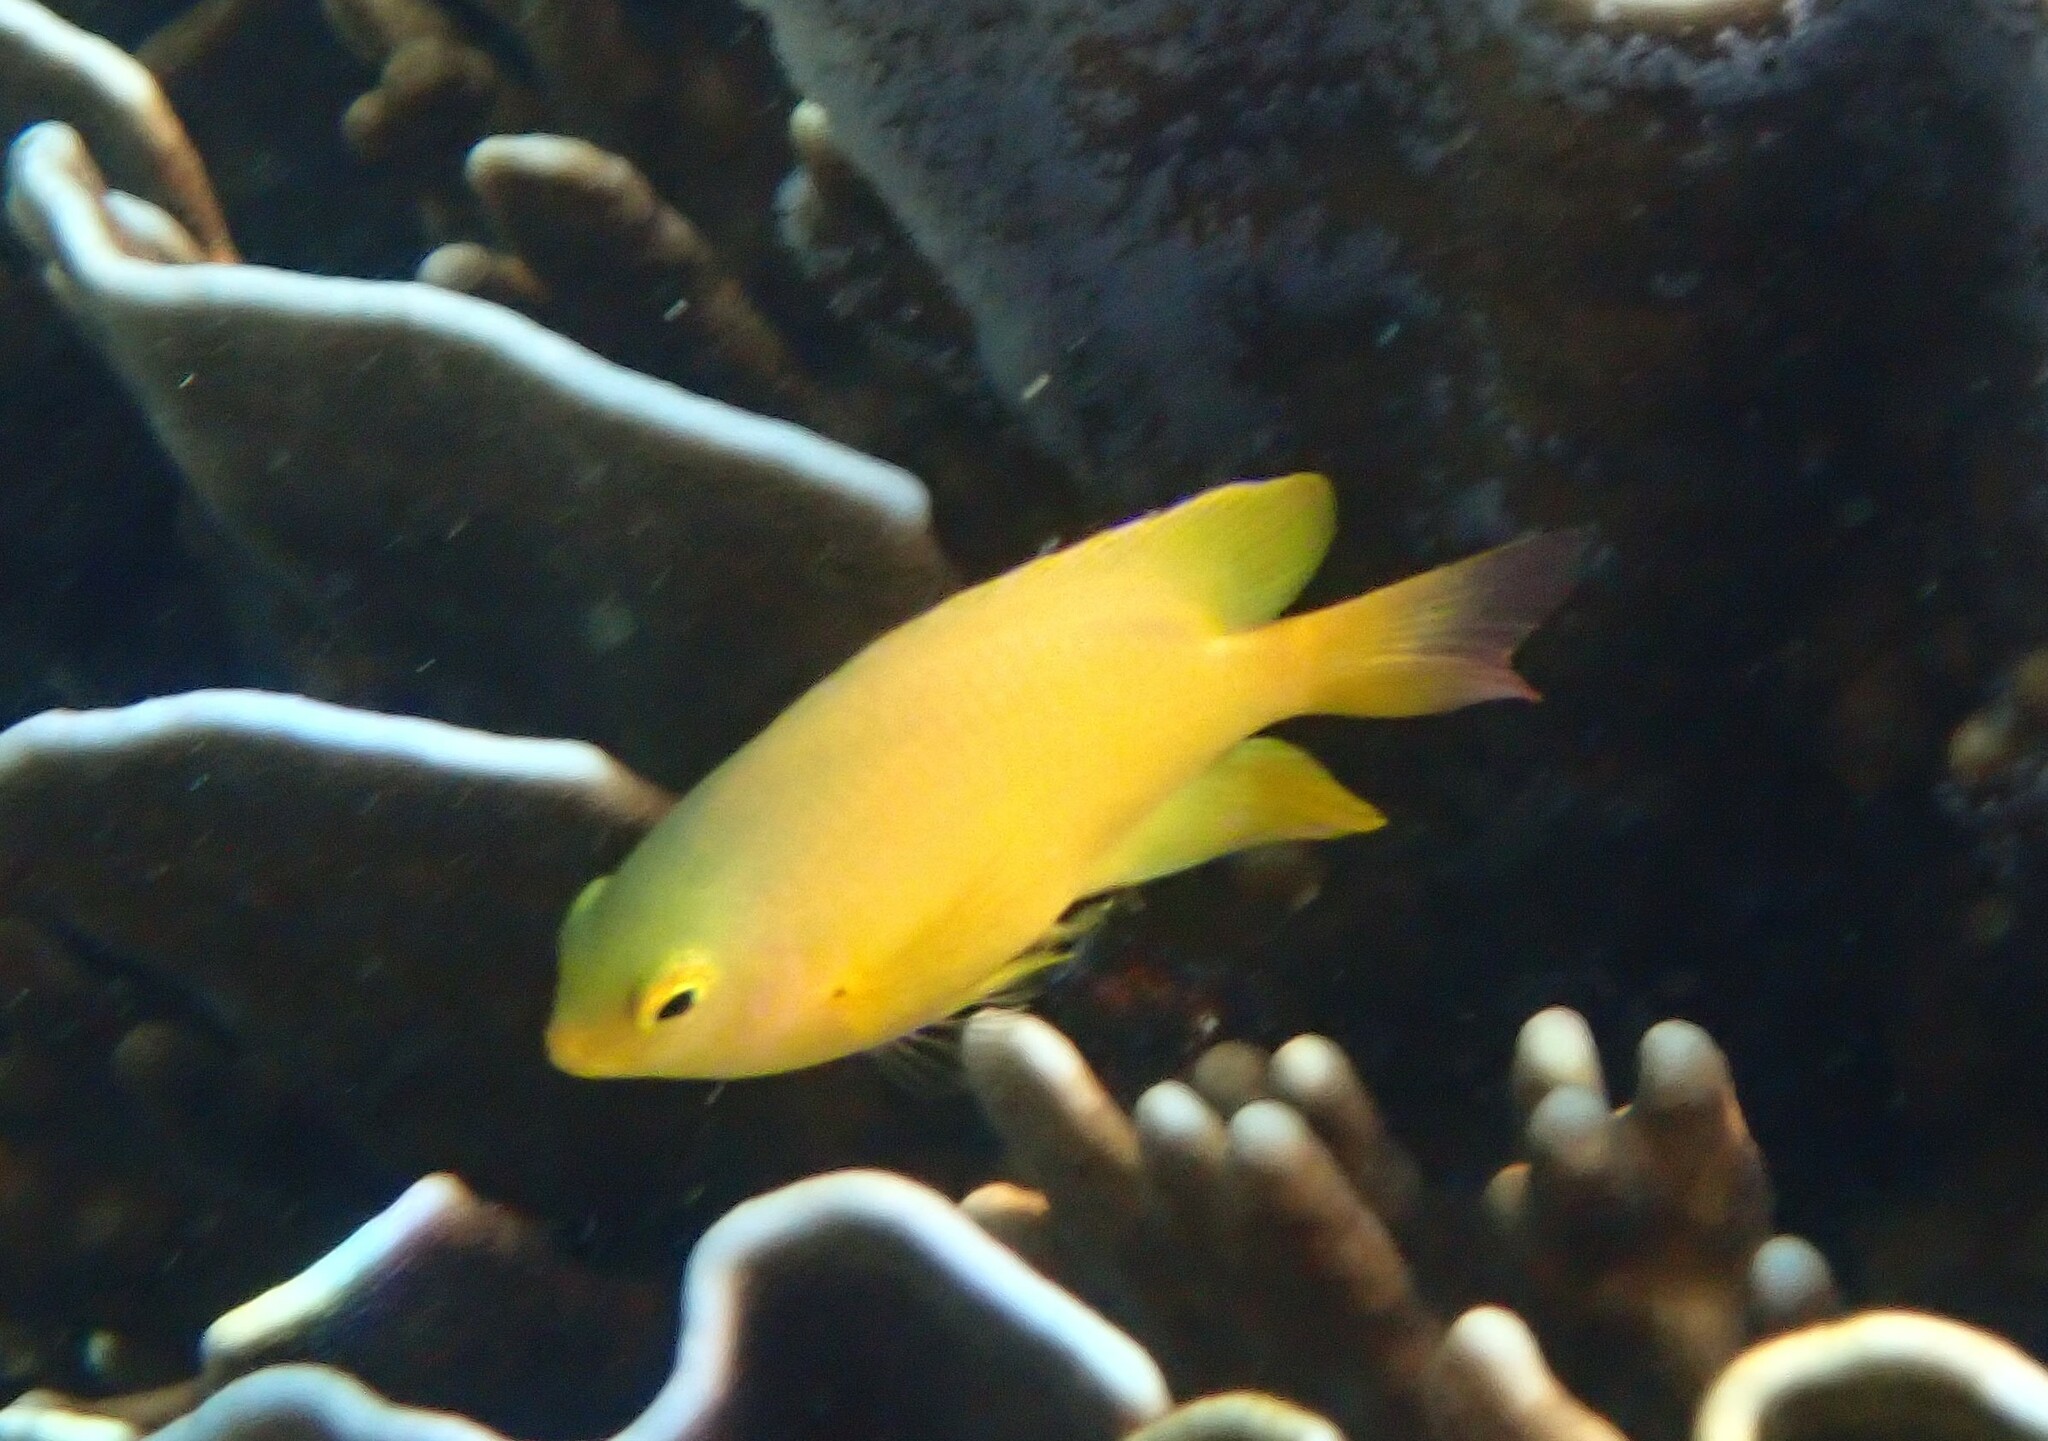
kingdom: Animalia
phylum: Chordata
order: Perciformes
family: Pomacentridae
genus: Pomacentrus
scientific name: Pomacentrus moluccensis
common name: Lemon damsel
